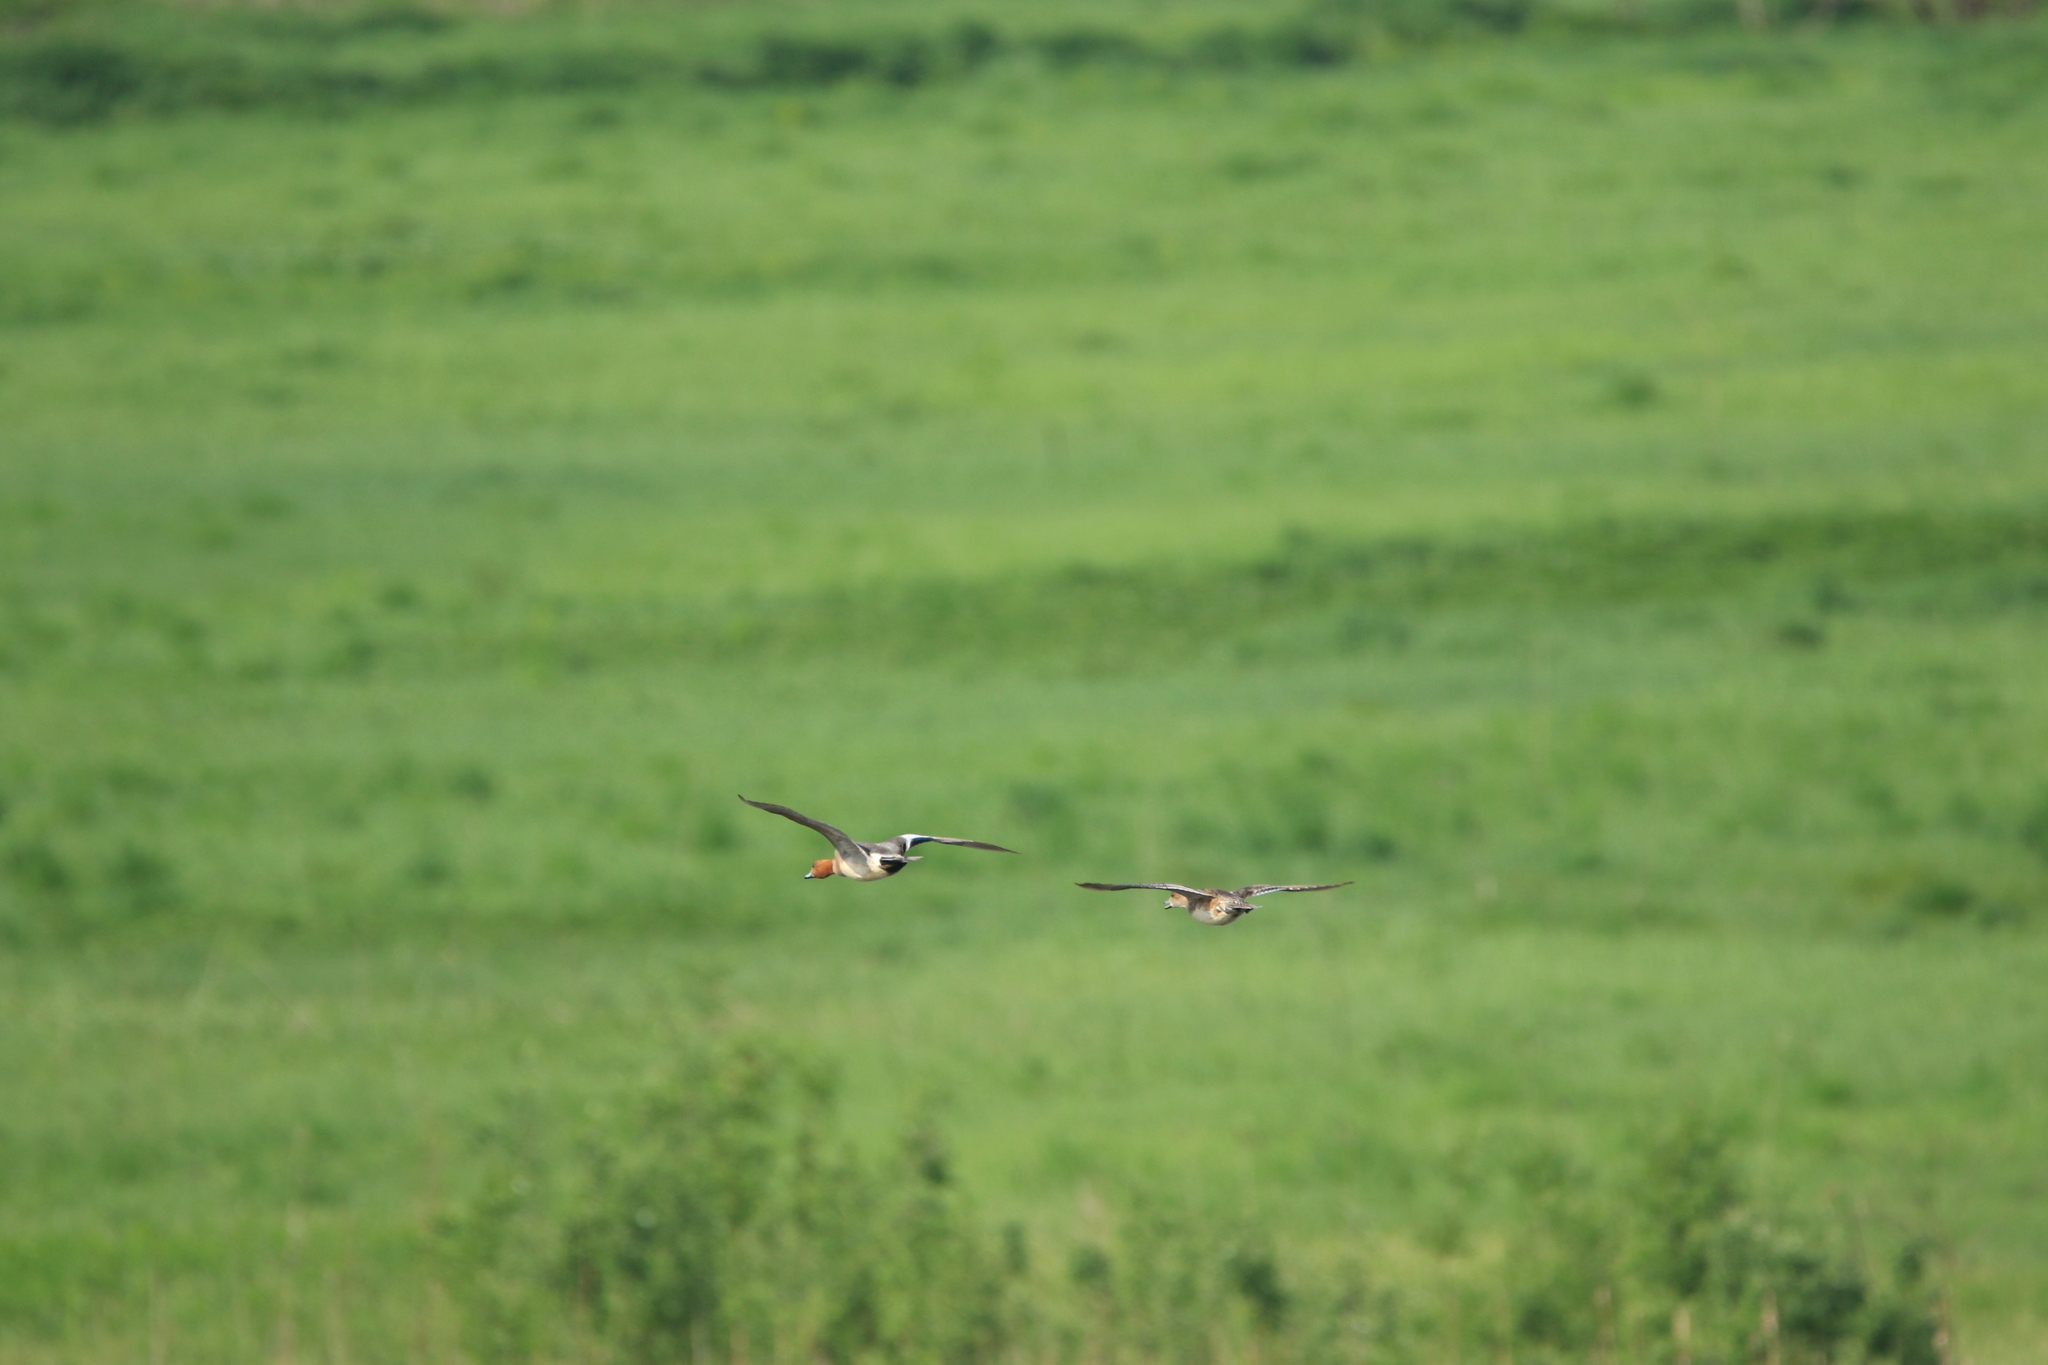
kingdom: Animalia
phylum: Chordata
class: Aves
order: Anseriformes
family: Anatidae
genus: Mareca
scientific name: Mareca penelope
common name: Eurasian wigeon
